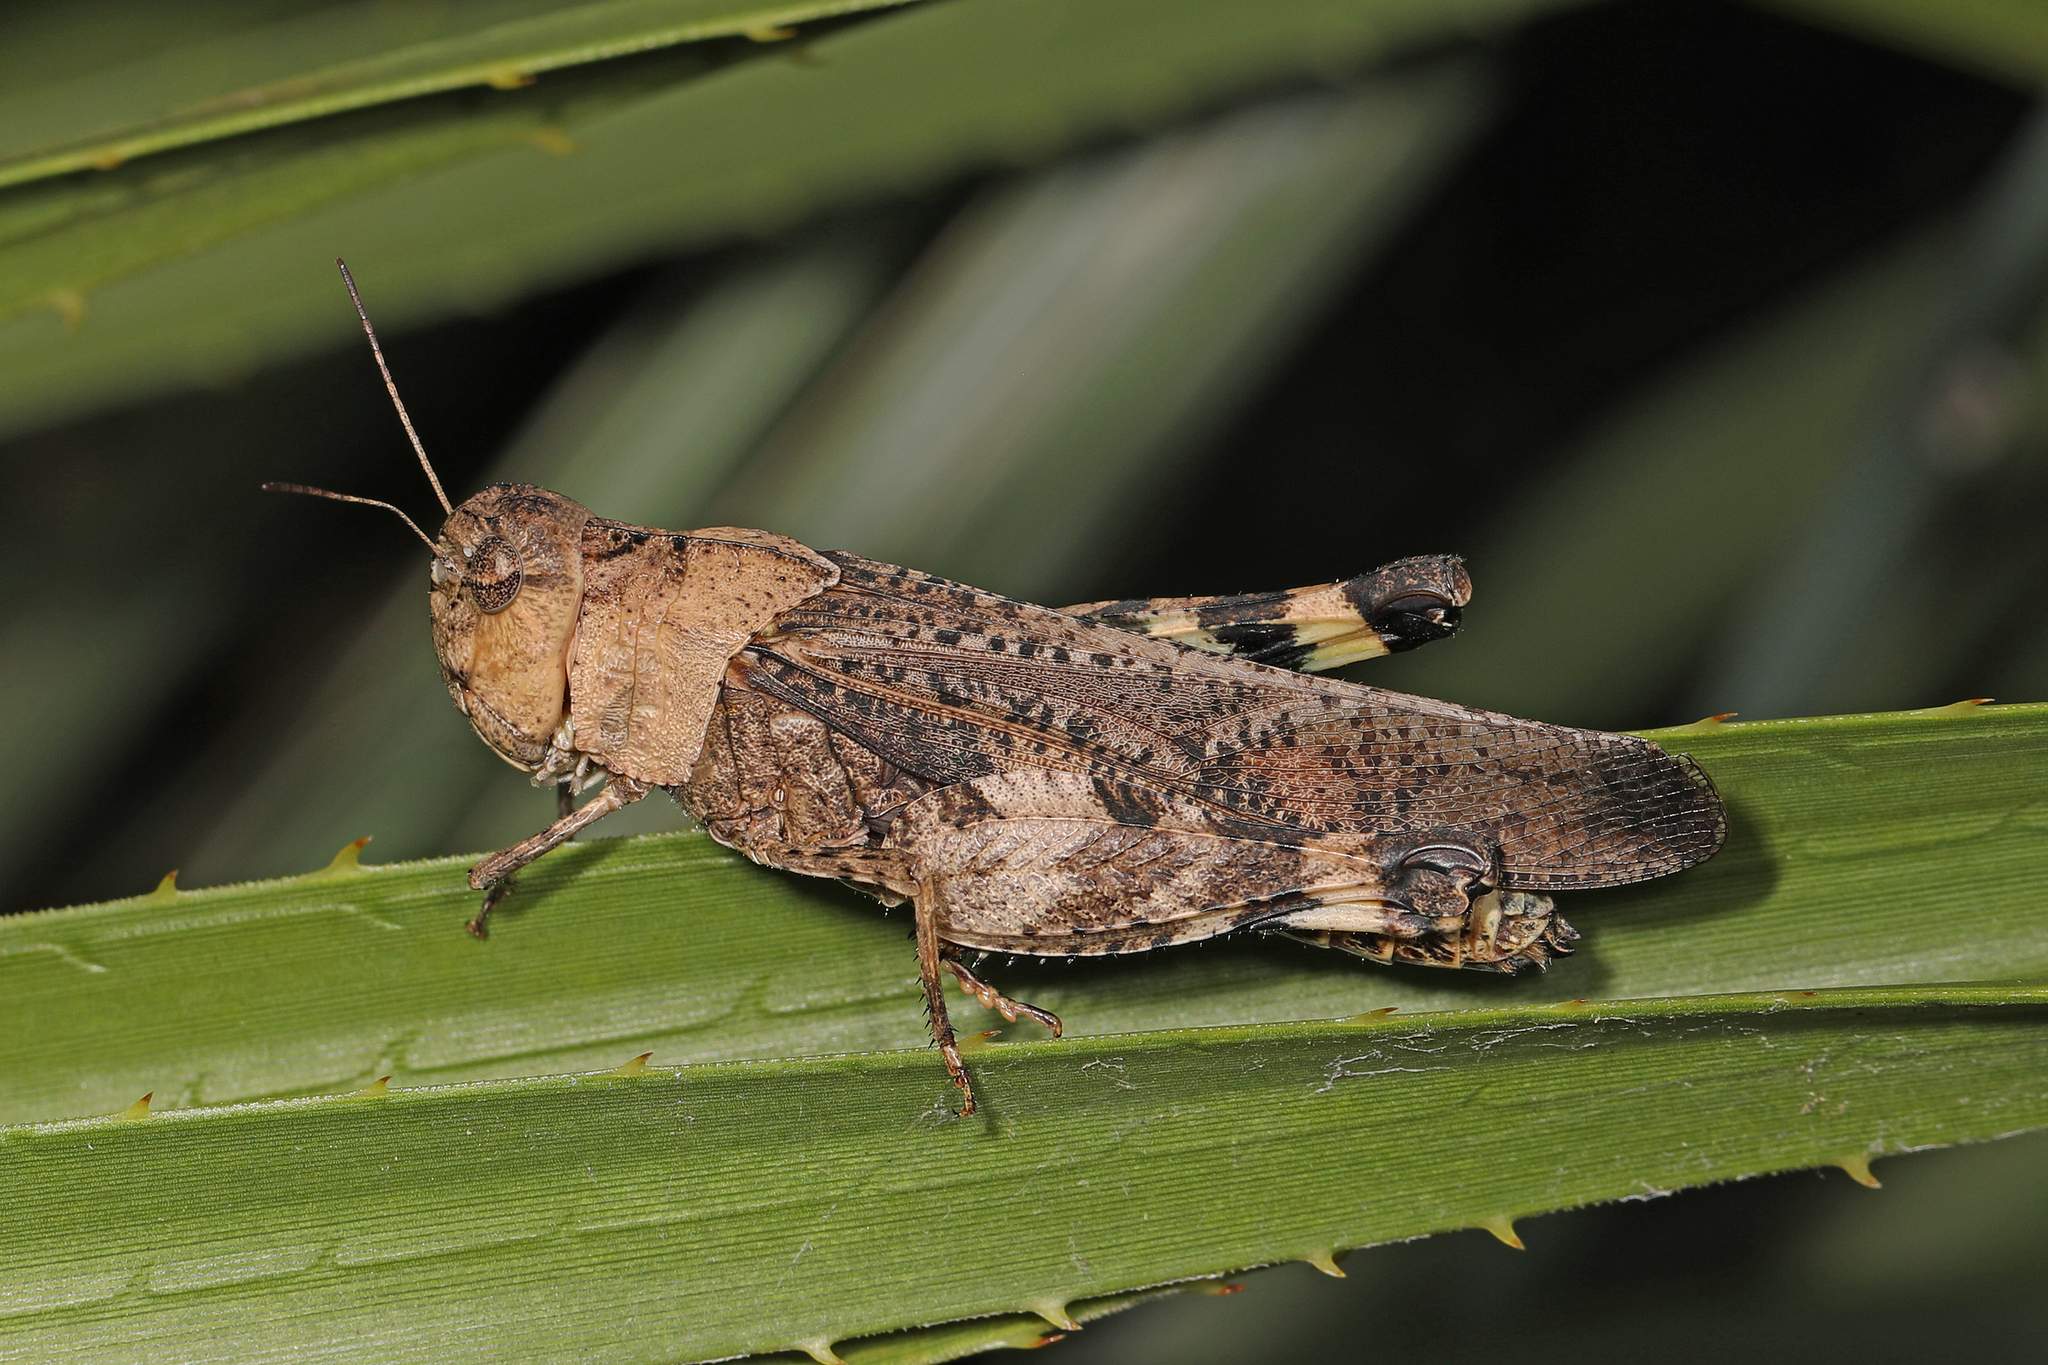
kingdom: Animalia
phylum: Arthropoda
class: Insecta
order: Orthoptera
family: Acrididae
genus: Arphia
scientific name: Arphia simplex
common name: Plains yellow-winged grasshopper
